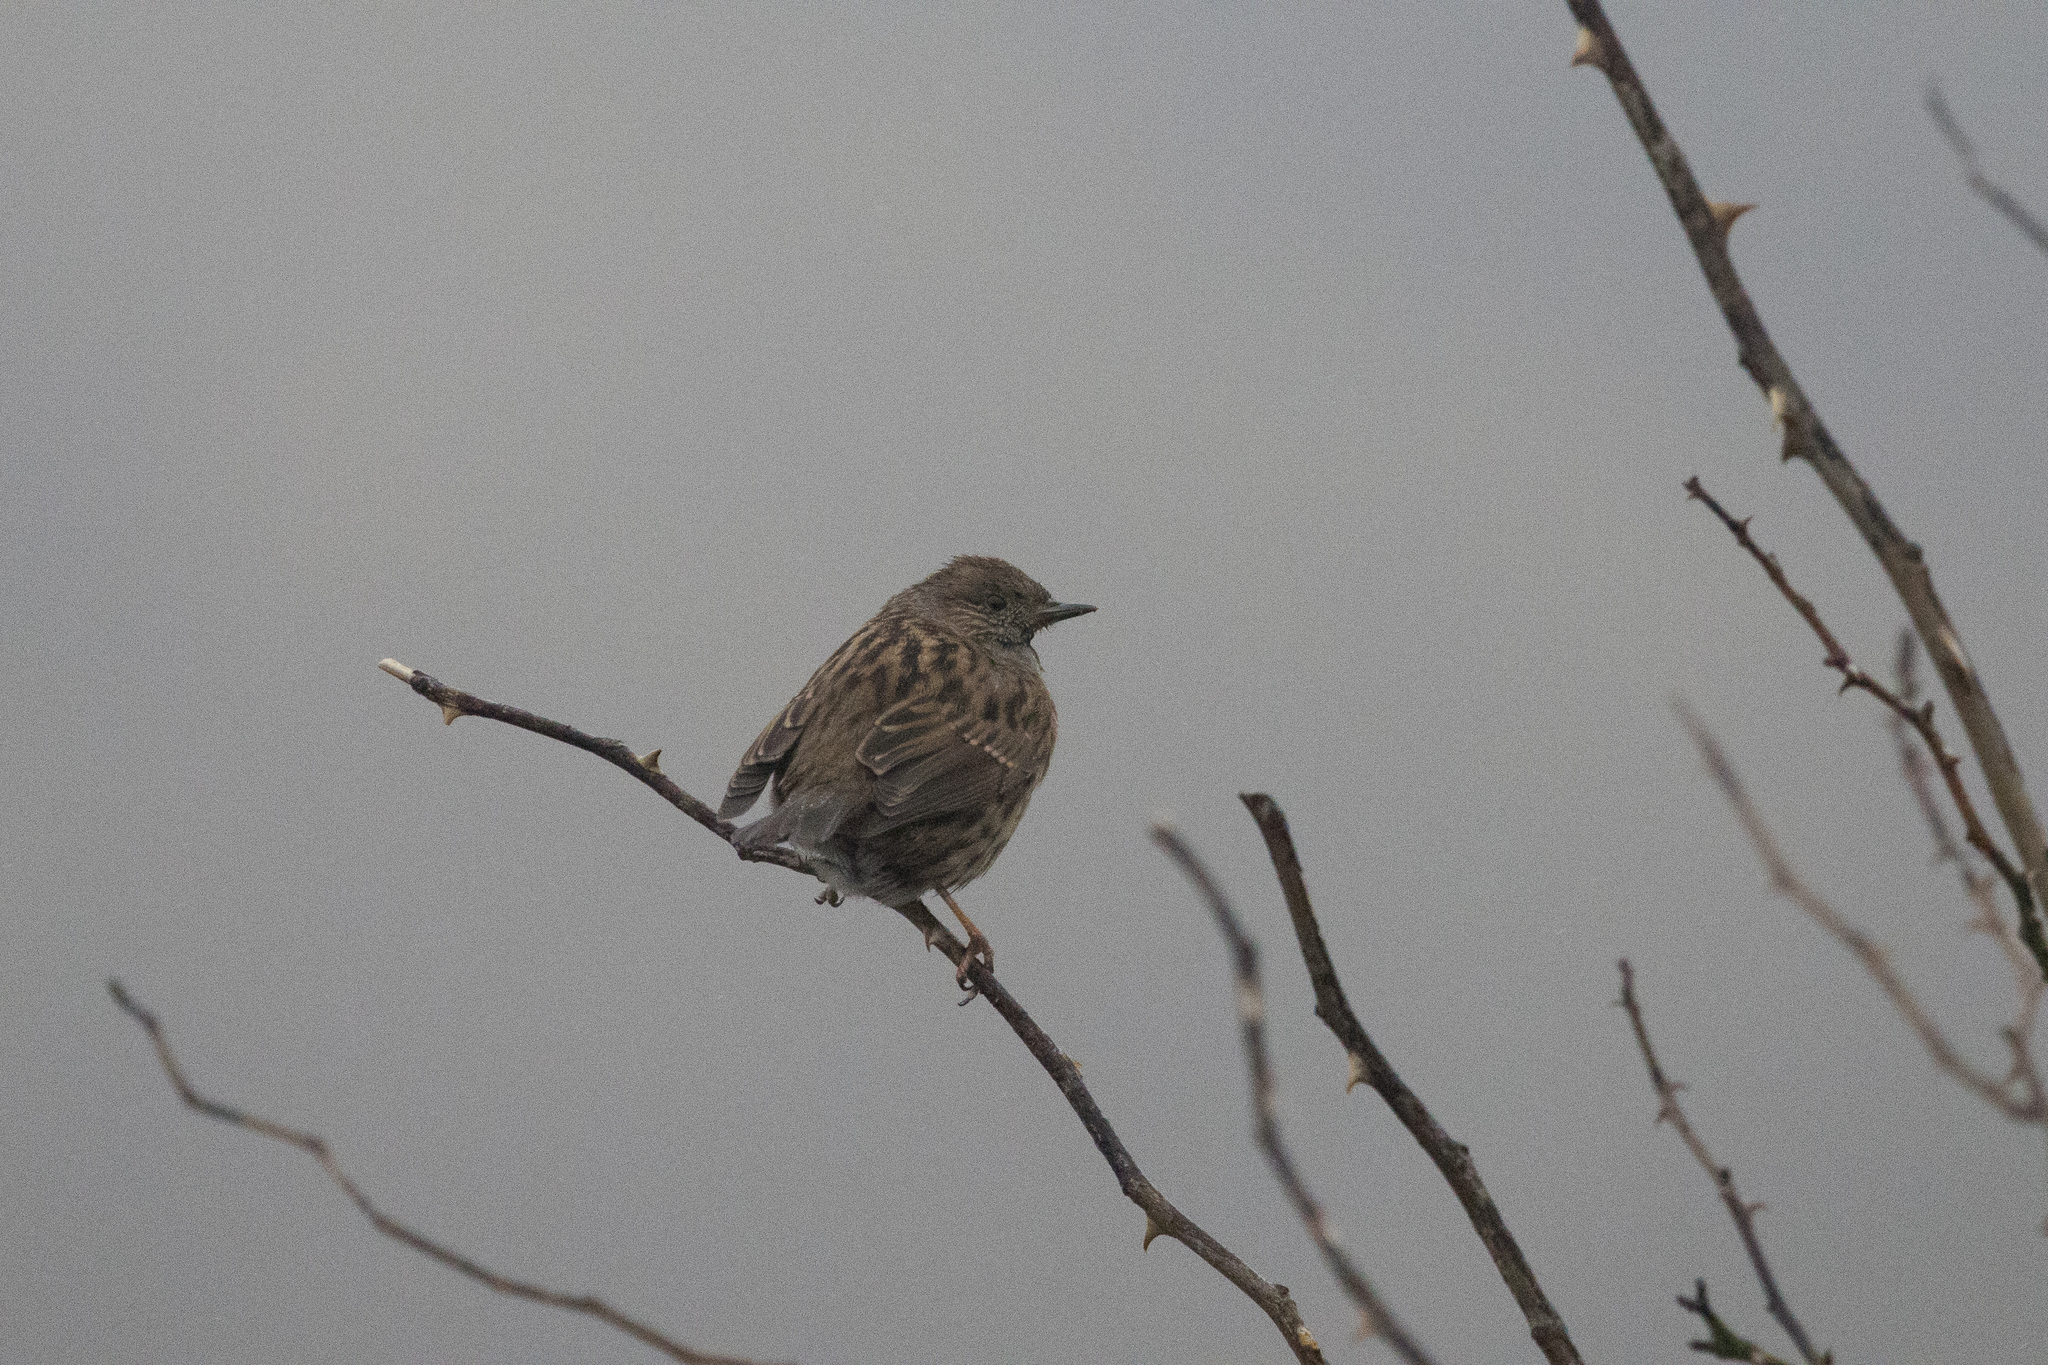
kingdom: Animalia
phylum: Chordata
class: Aves
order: Passeriformes
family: Prunellidae
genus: Prunella
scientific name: Prunella modularis
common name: Dunnock
